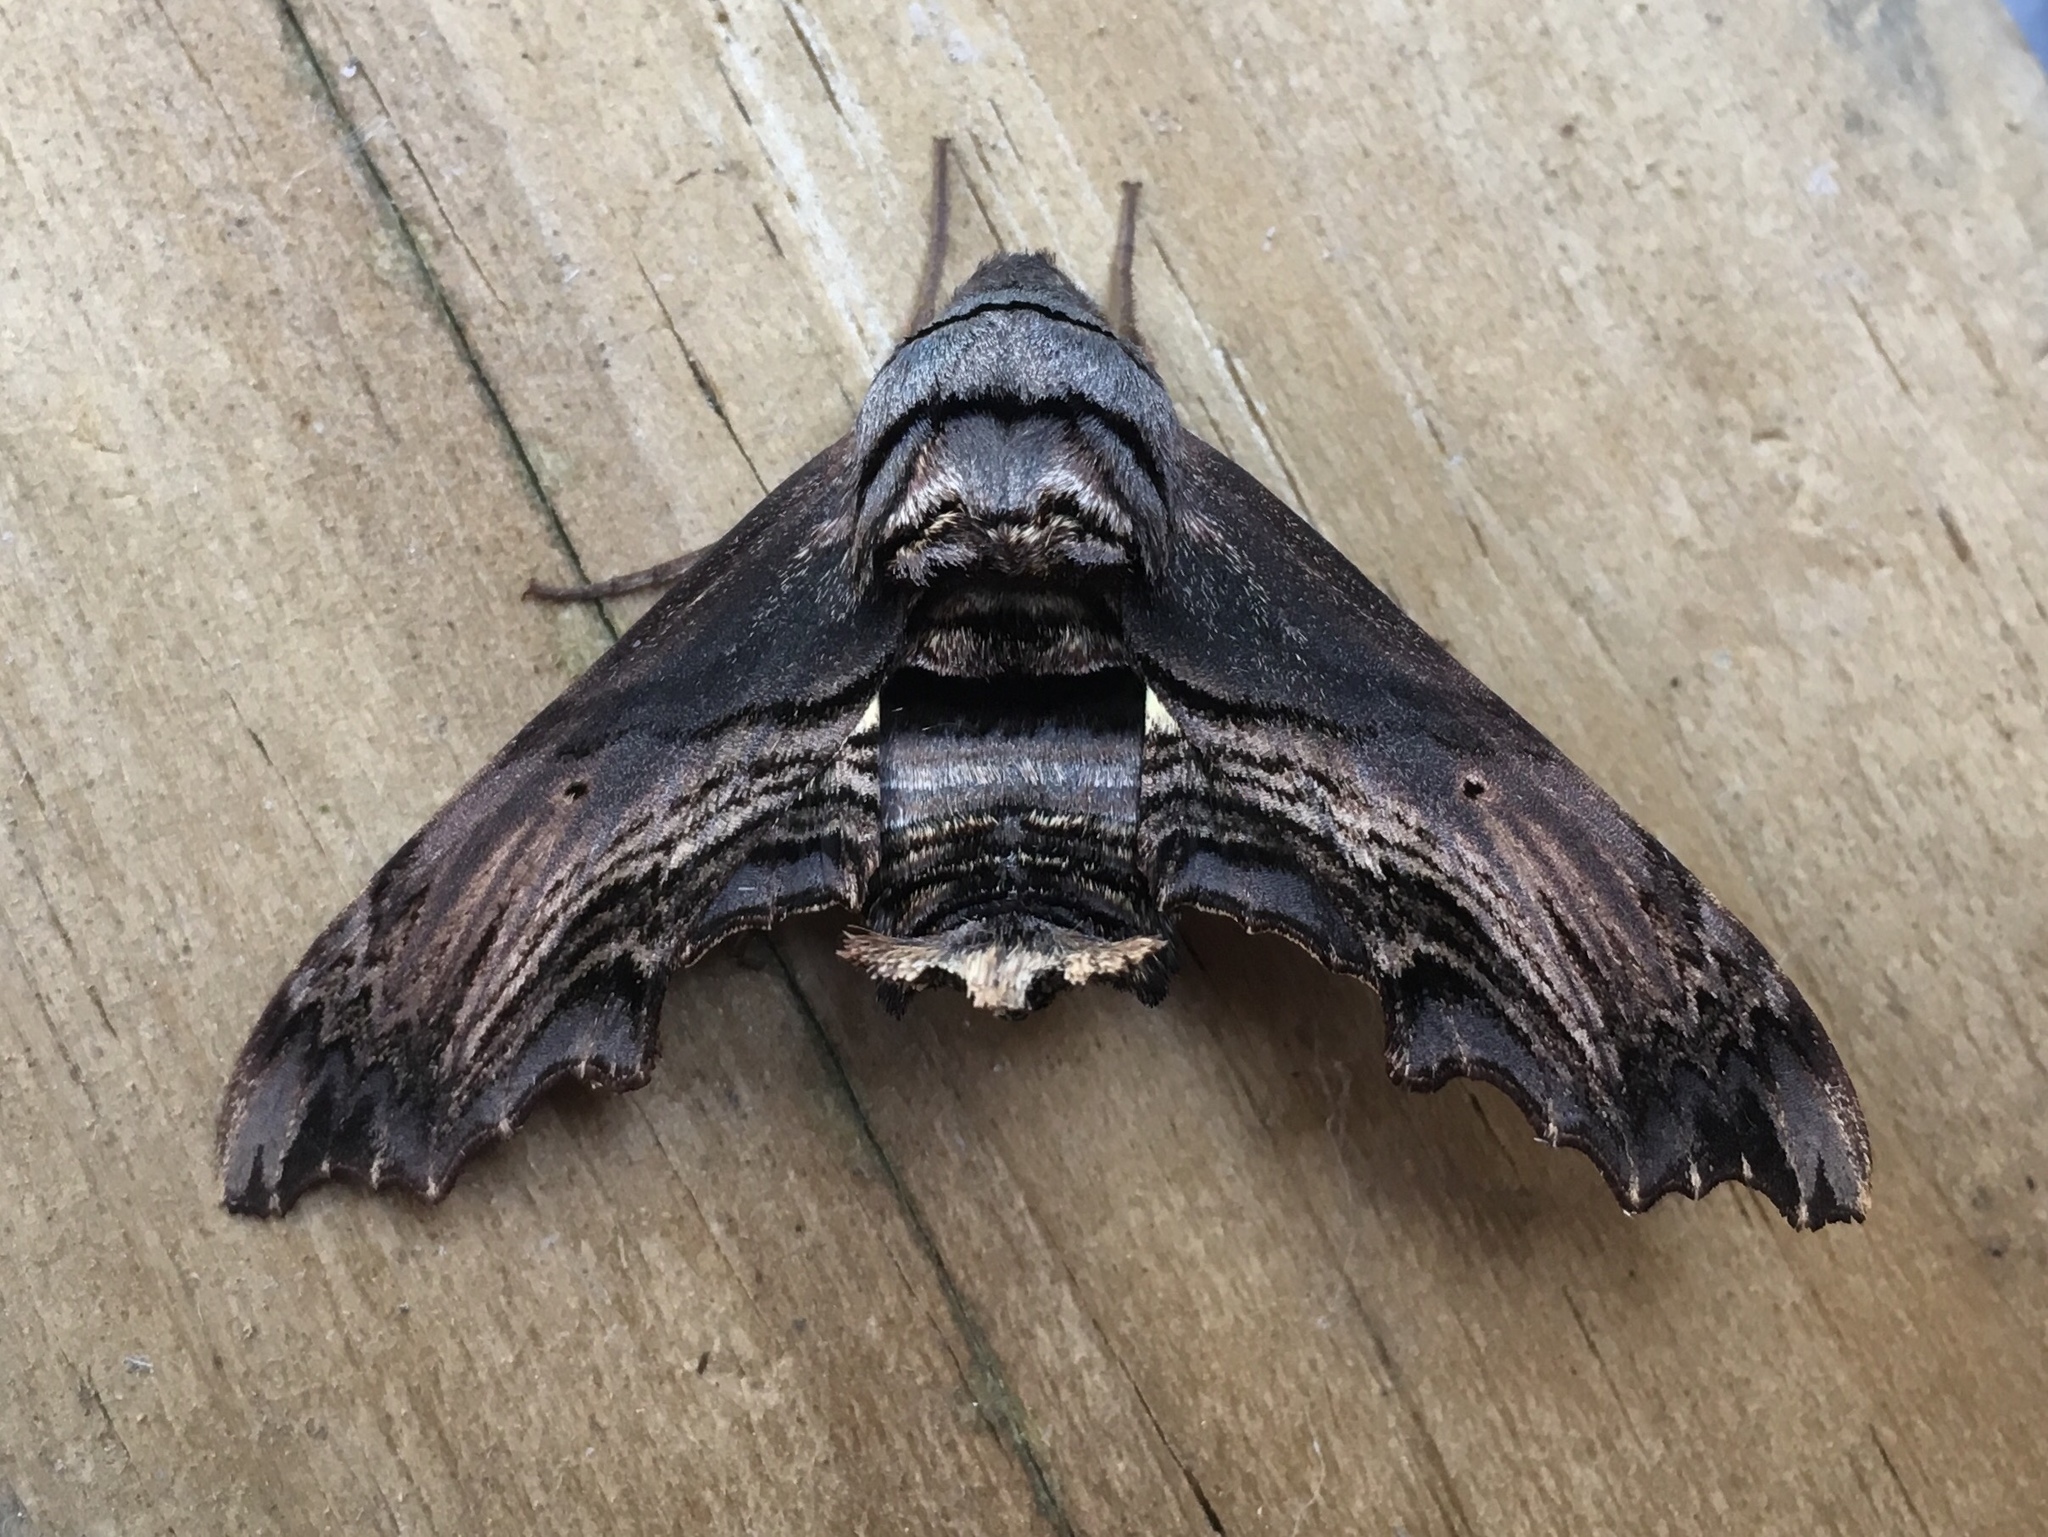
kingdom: Animalia
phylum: Arthropoda
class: Insecta
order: Lepidoptera
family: Sphingidae
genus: Sphecodina
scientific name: Sphecodina abbottii
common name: Abbott's sphinx
